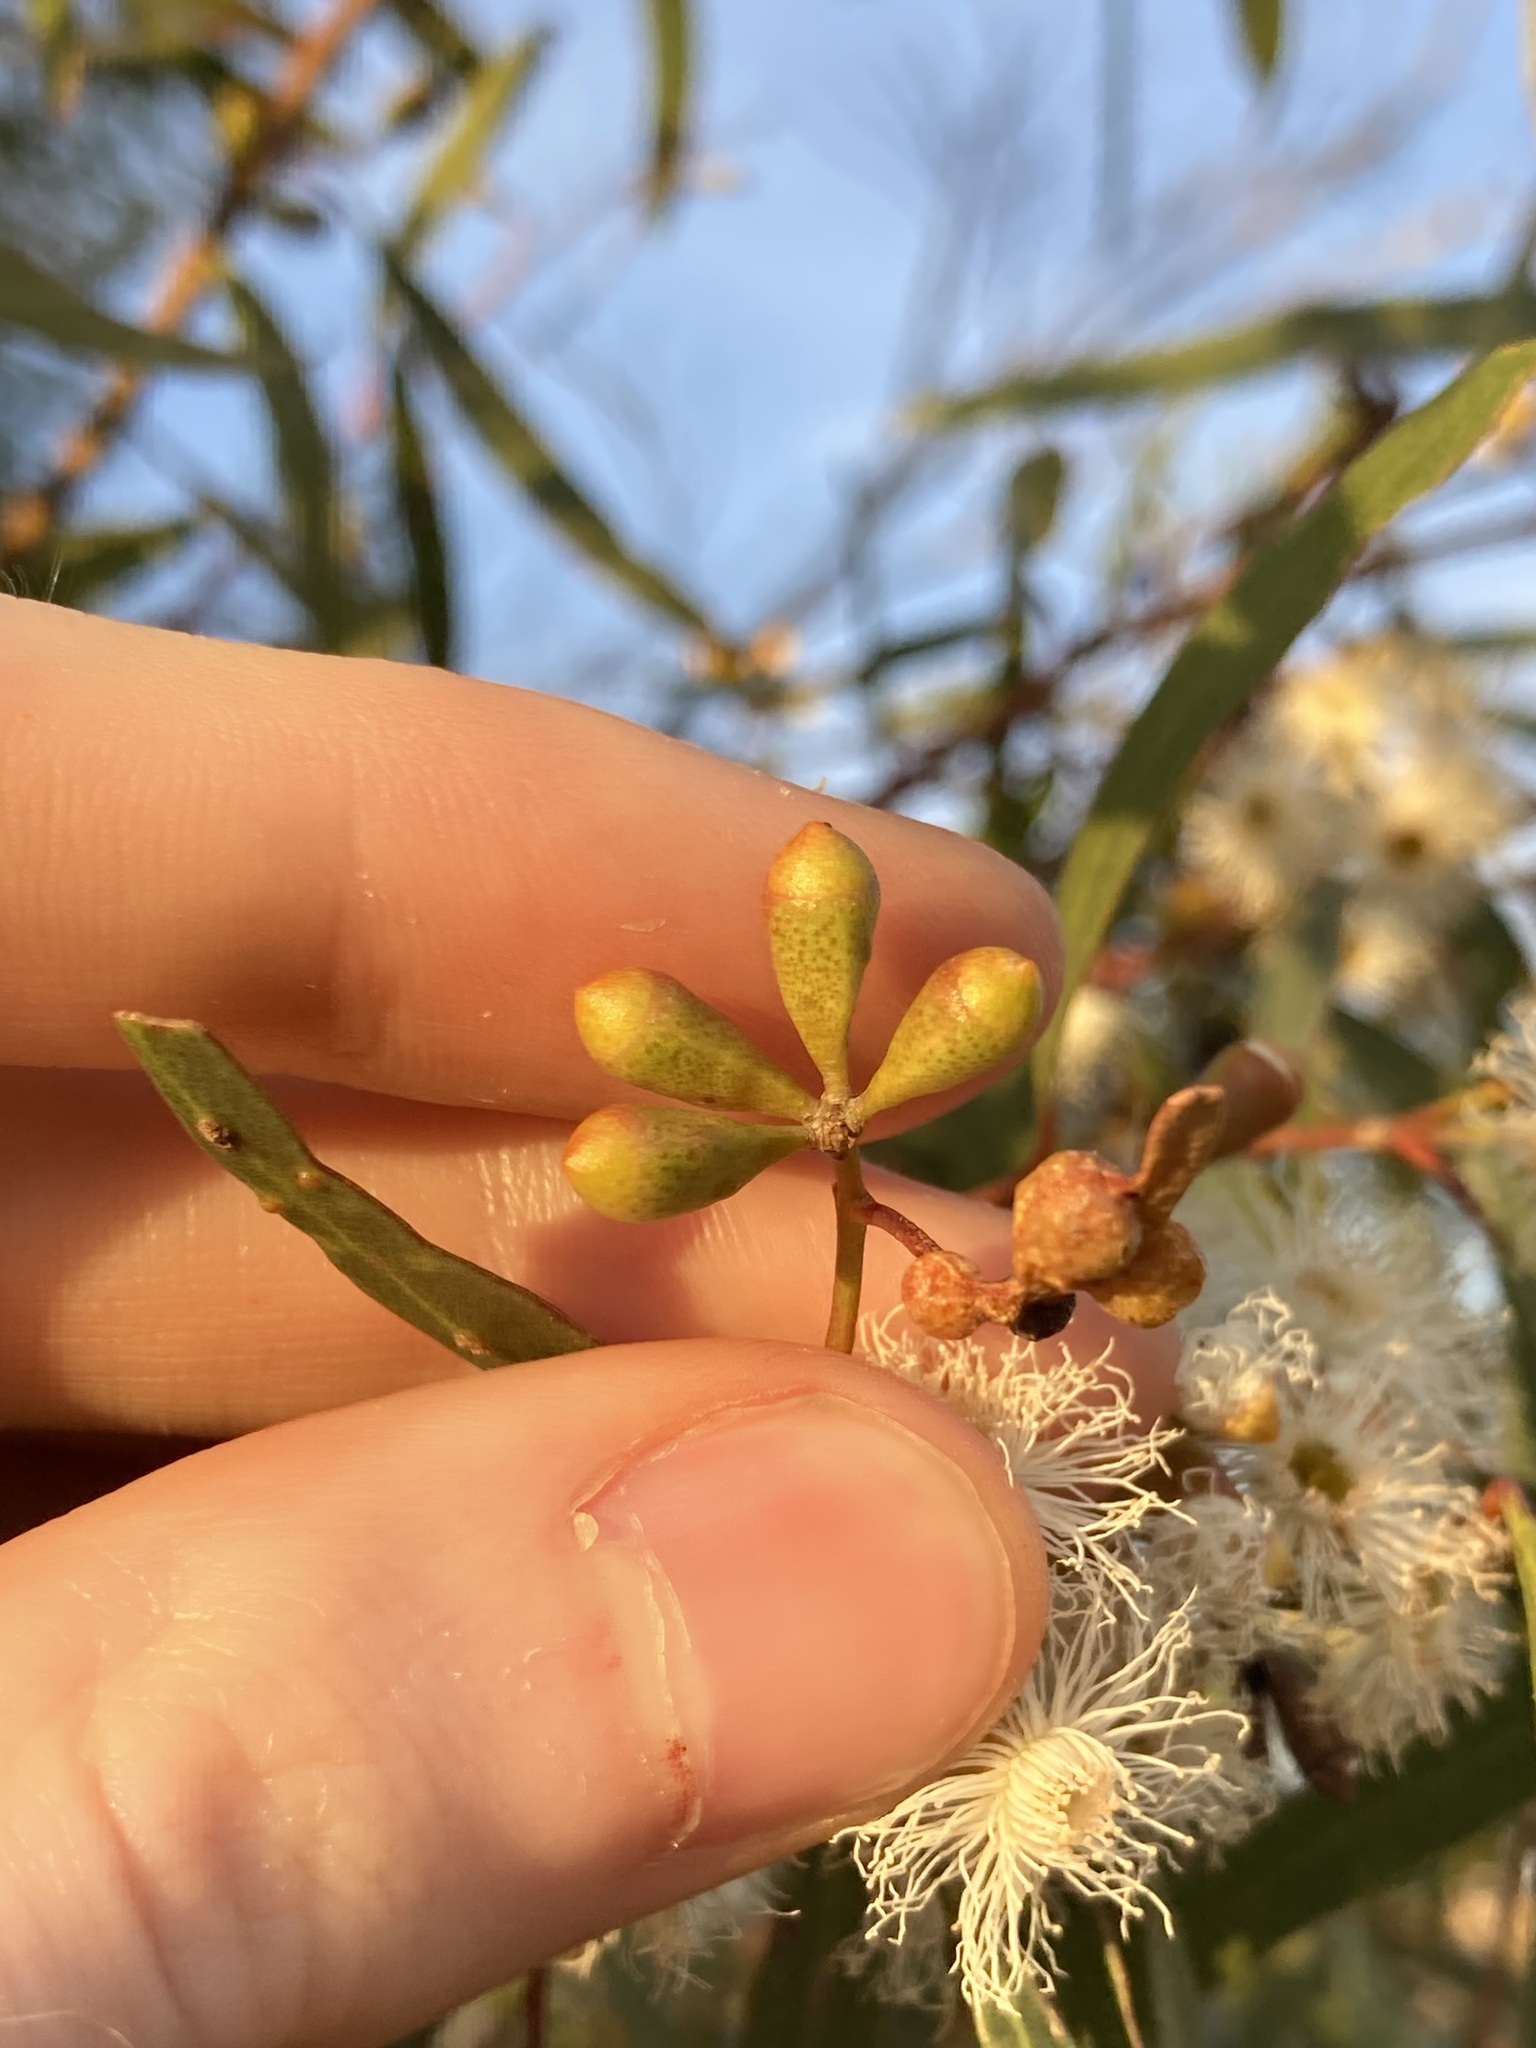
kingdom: Plantae
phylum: Tracheophyta
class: Magnoliopsida
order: Myrtales
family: Myrtaceae
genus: Eucalyptus
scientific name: Eucalyptus calycogona
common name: Marvel mallee
